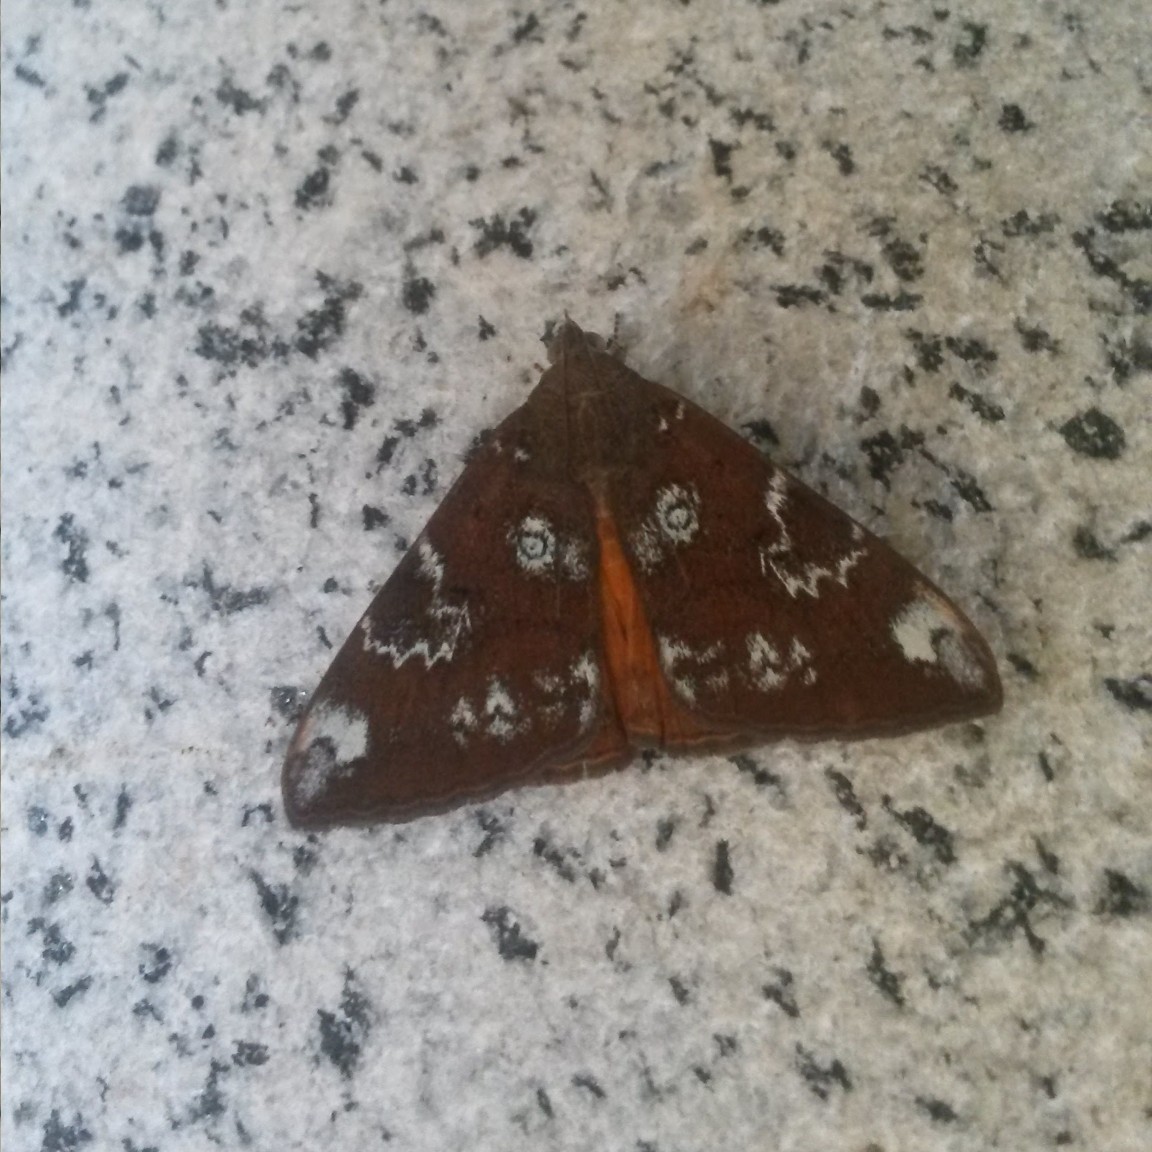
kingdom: Animalia
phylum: Arthropoda
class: Insecta
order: Lepidoptera
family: Erebidae
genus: Oxyodes
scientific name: Oxyodes tricolor
